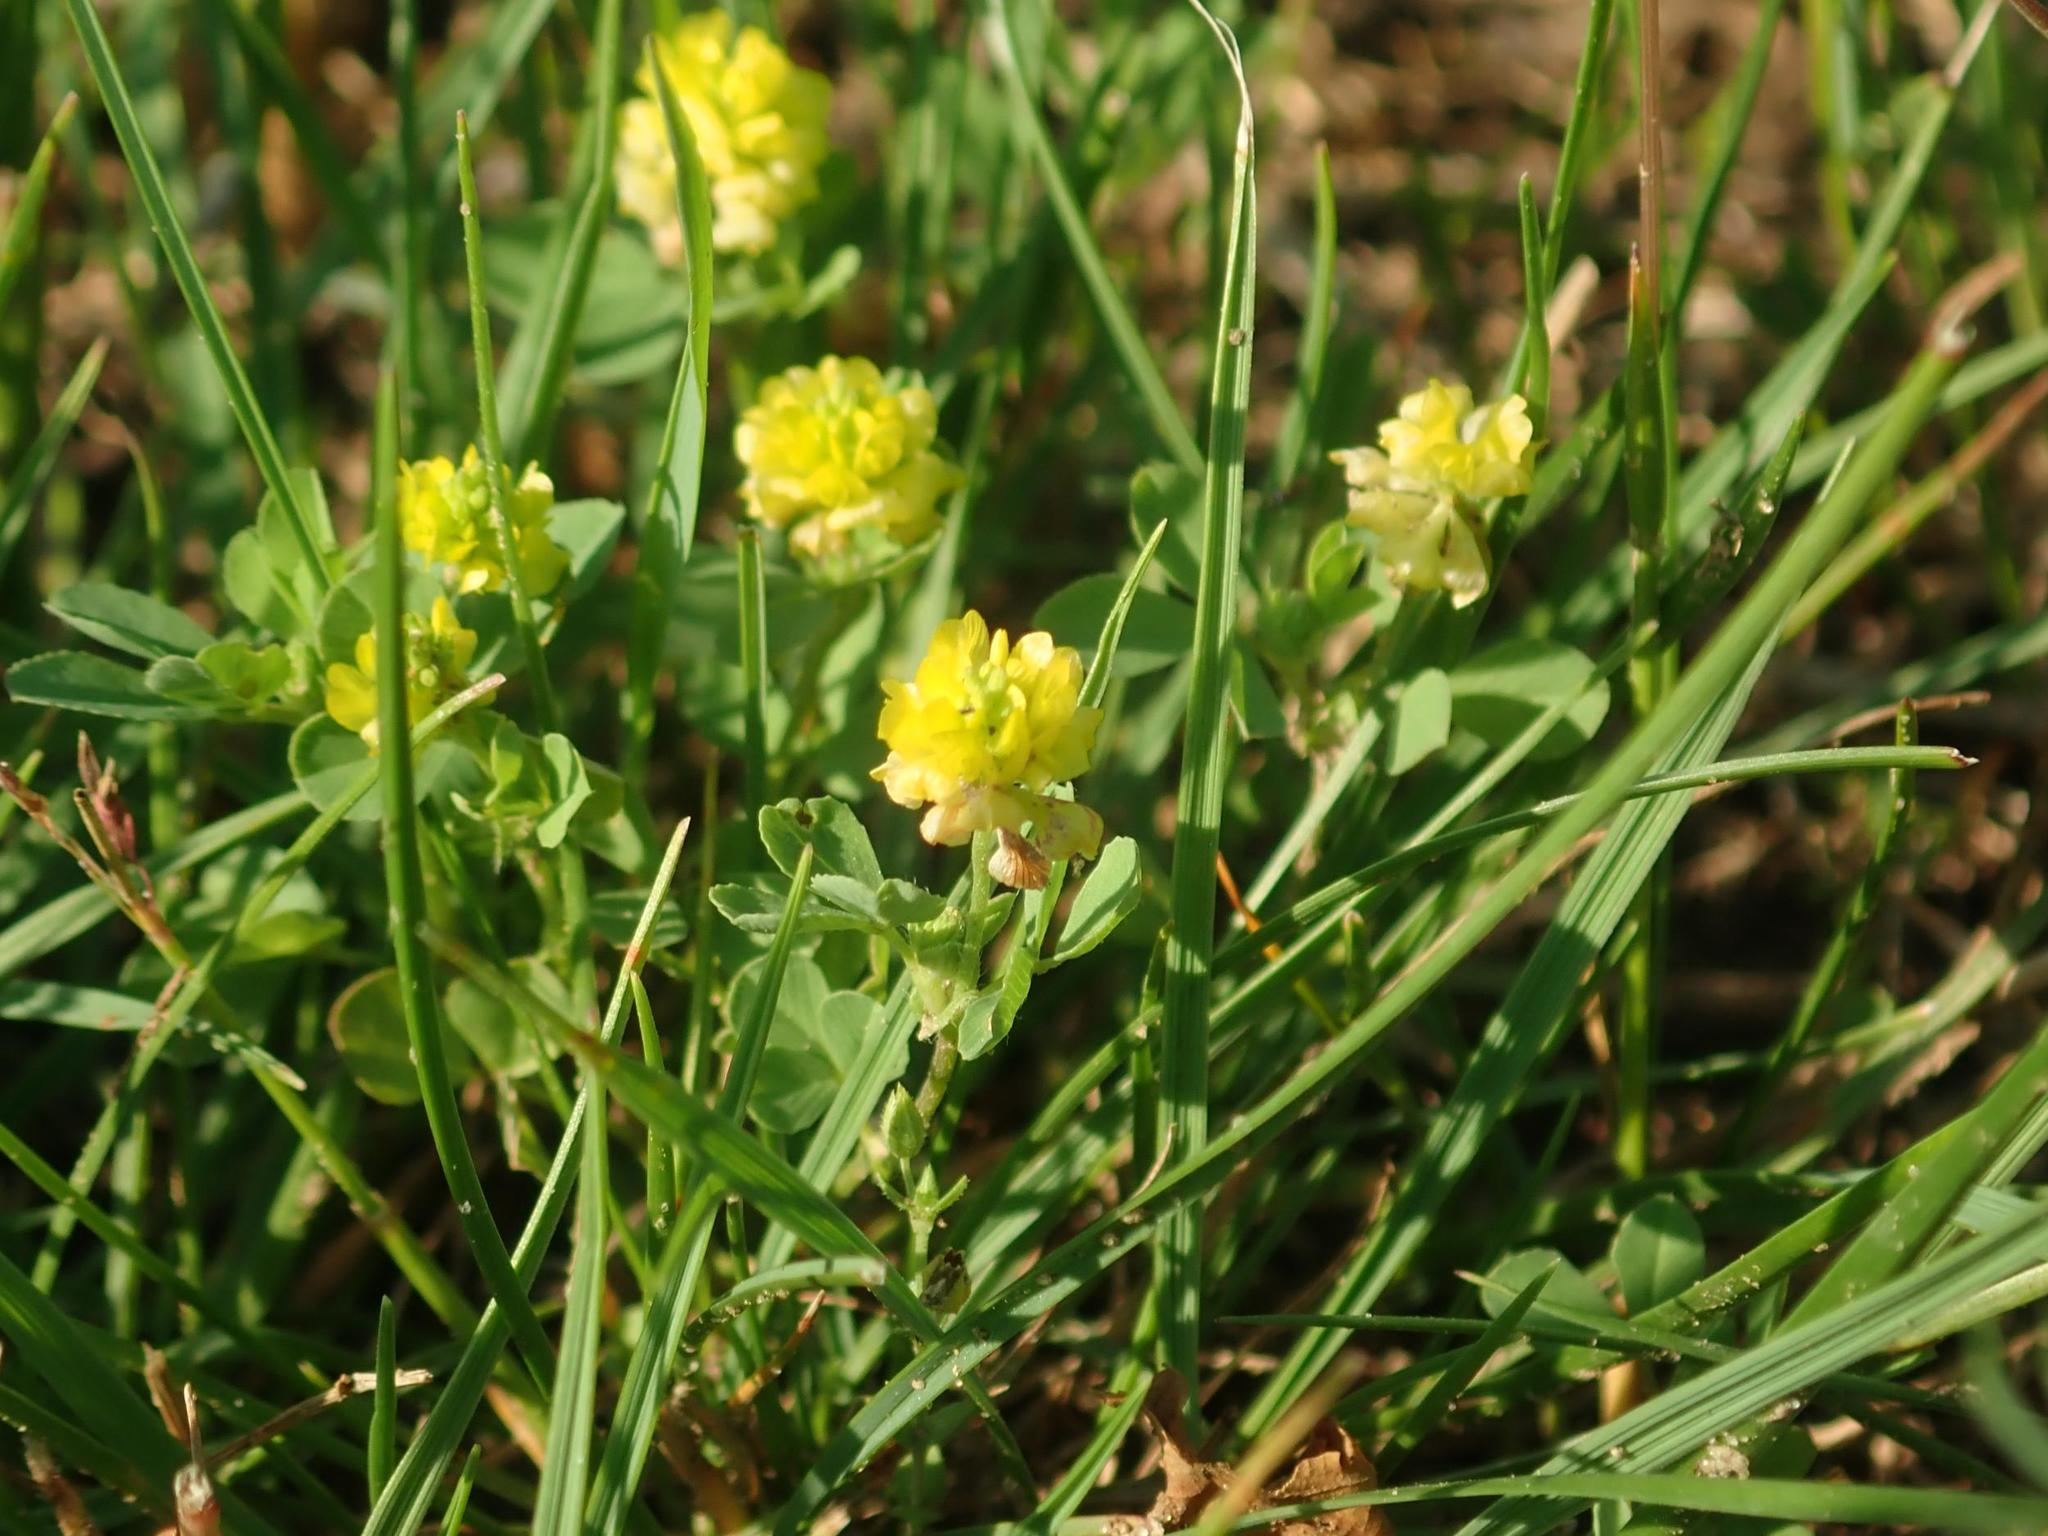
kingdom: Plantae
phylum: Tracheophyta
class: Magnoliopsida
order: Fabales
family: Fabaceae
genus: Trifolium
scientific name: Trifolium campestre
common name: Field clover
